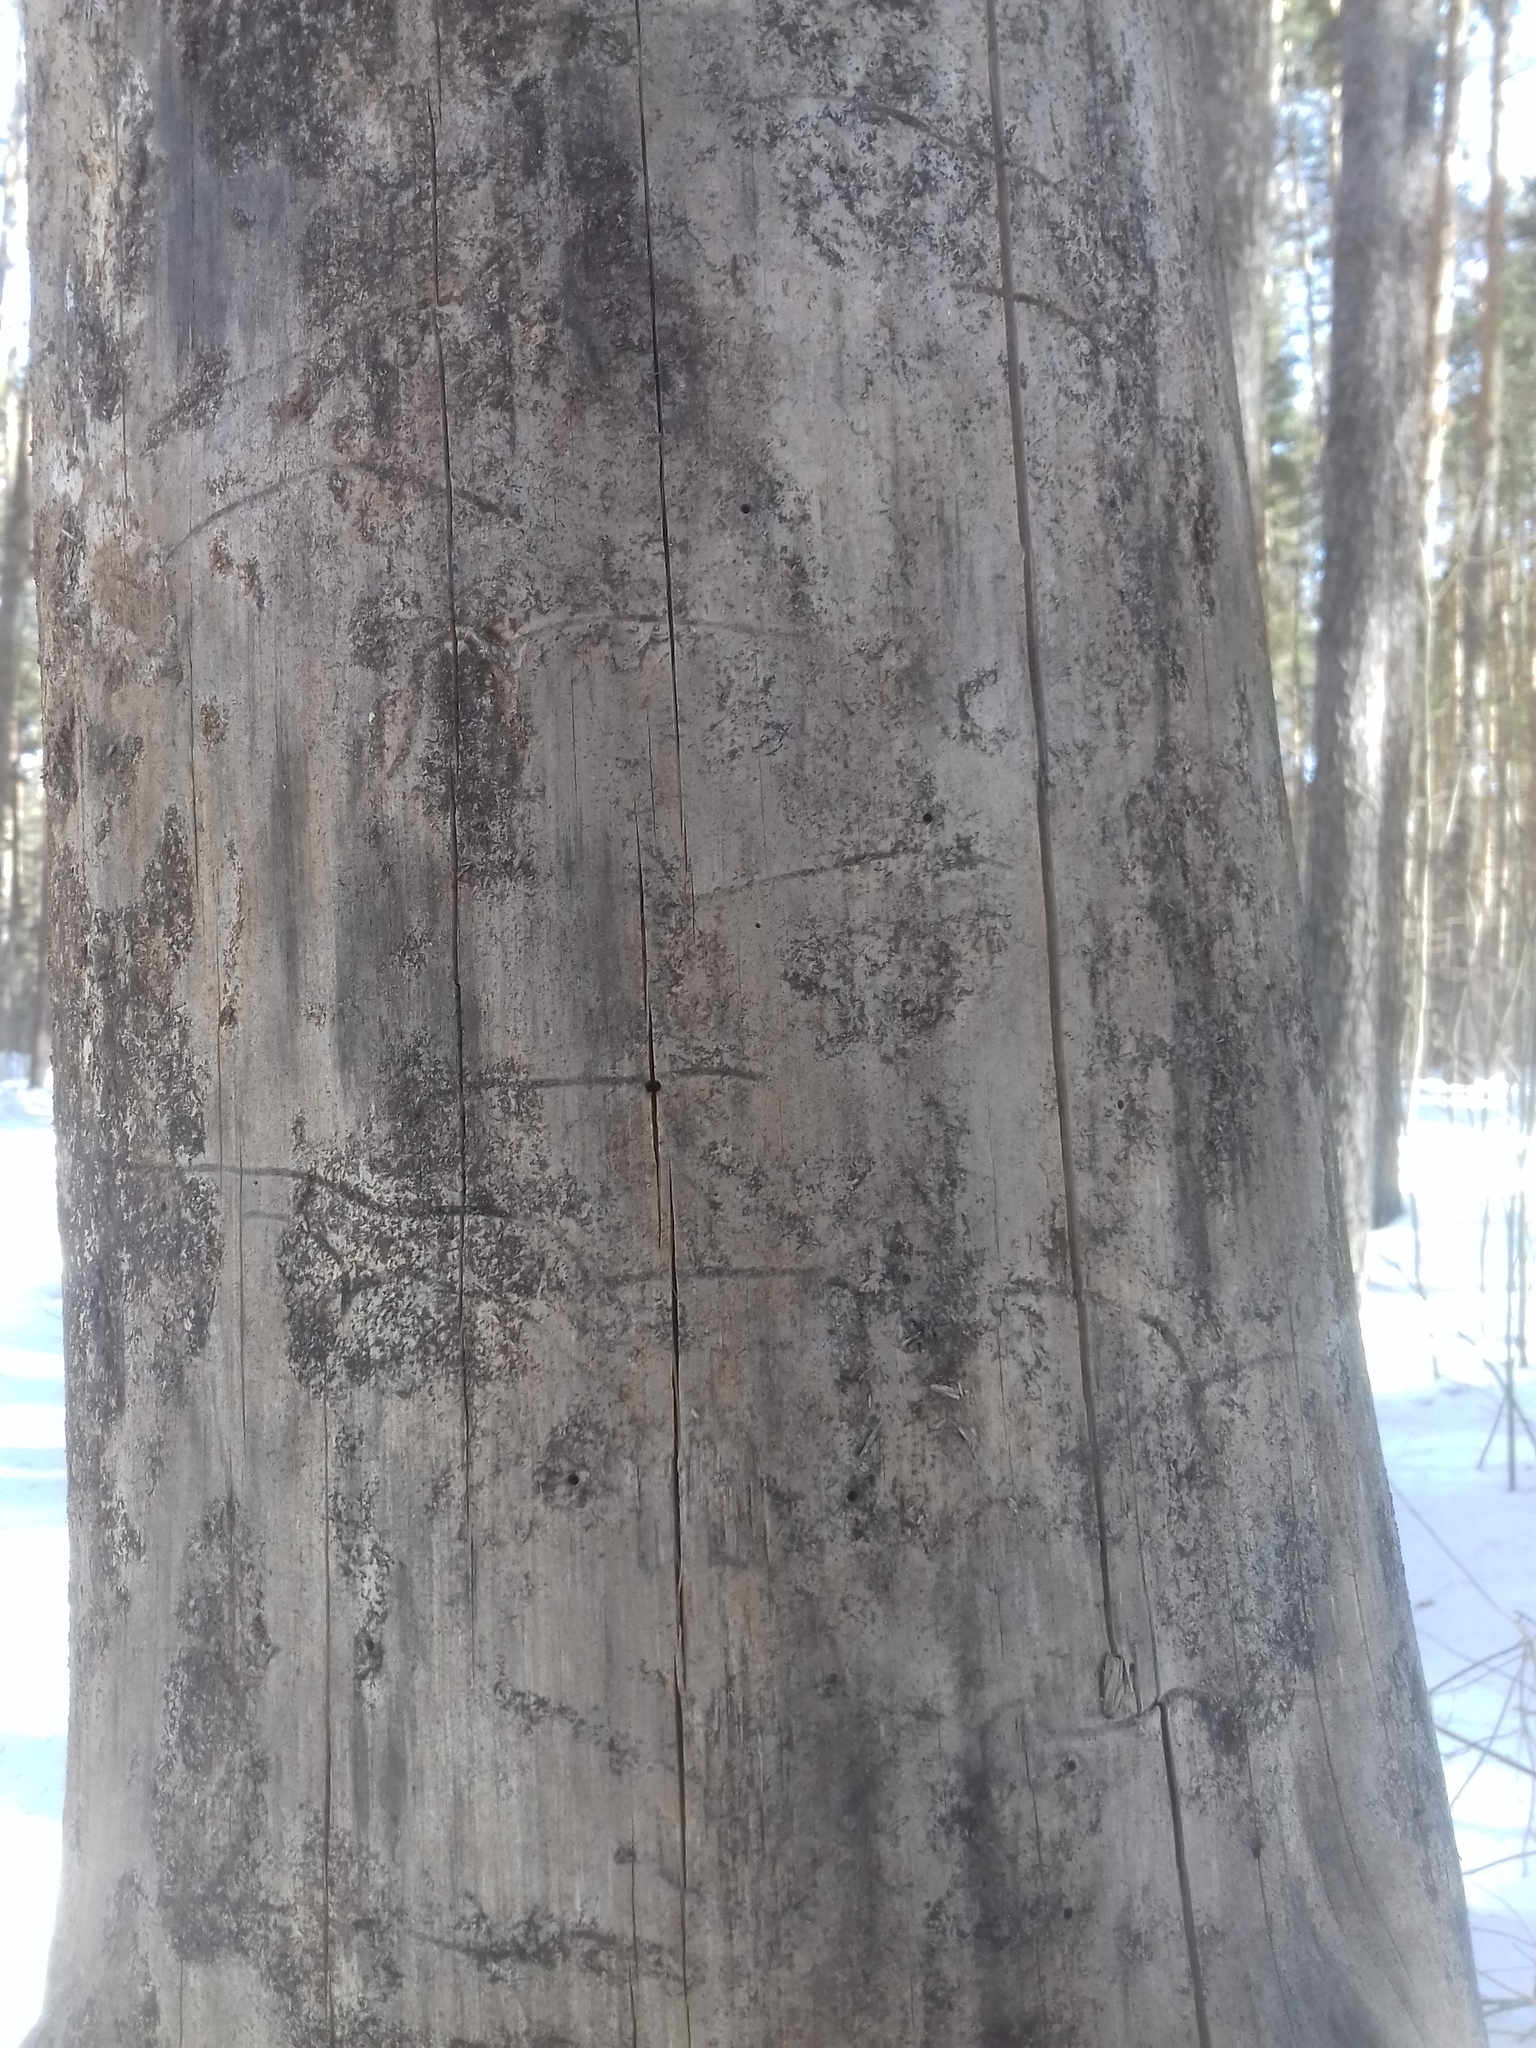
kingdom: Animalia
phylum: Arthropoda
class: Insecta
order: Coleoptera
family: Curculionidae
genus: Tomicus
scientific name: Tomicus minor
